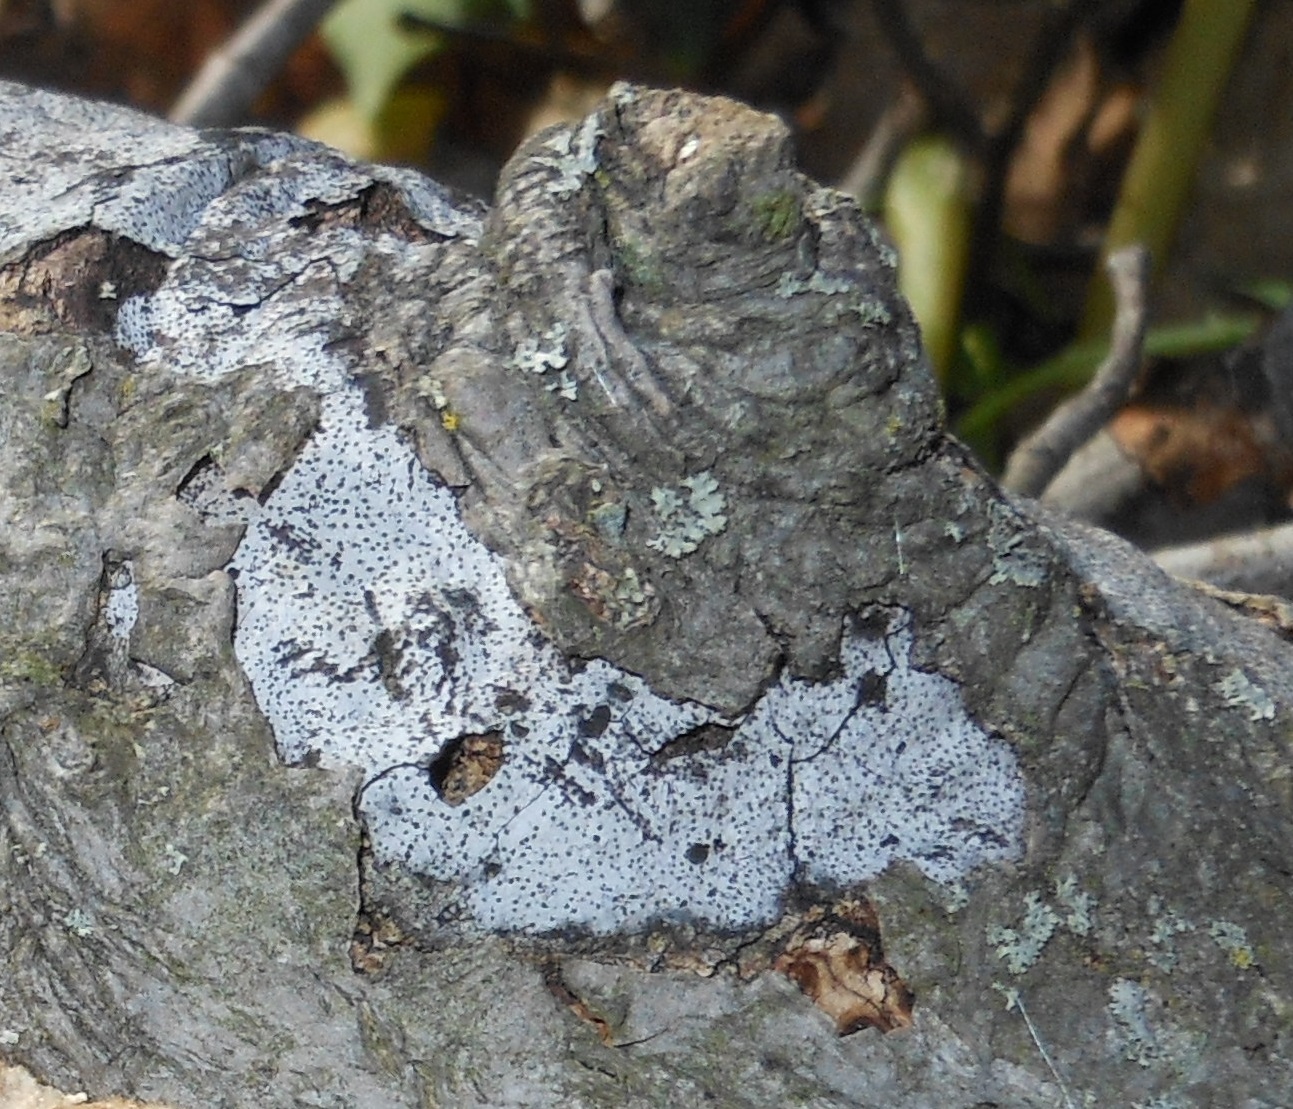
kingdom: Fungi
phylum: Ascomycota
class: Sordariomycetes
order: Xylariales
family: Graphostromataceae
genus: Biscogniauxia
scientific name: Biscogniauxia atropunctata
